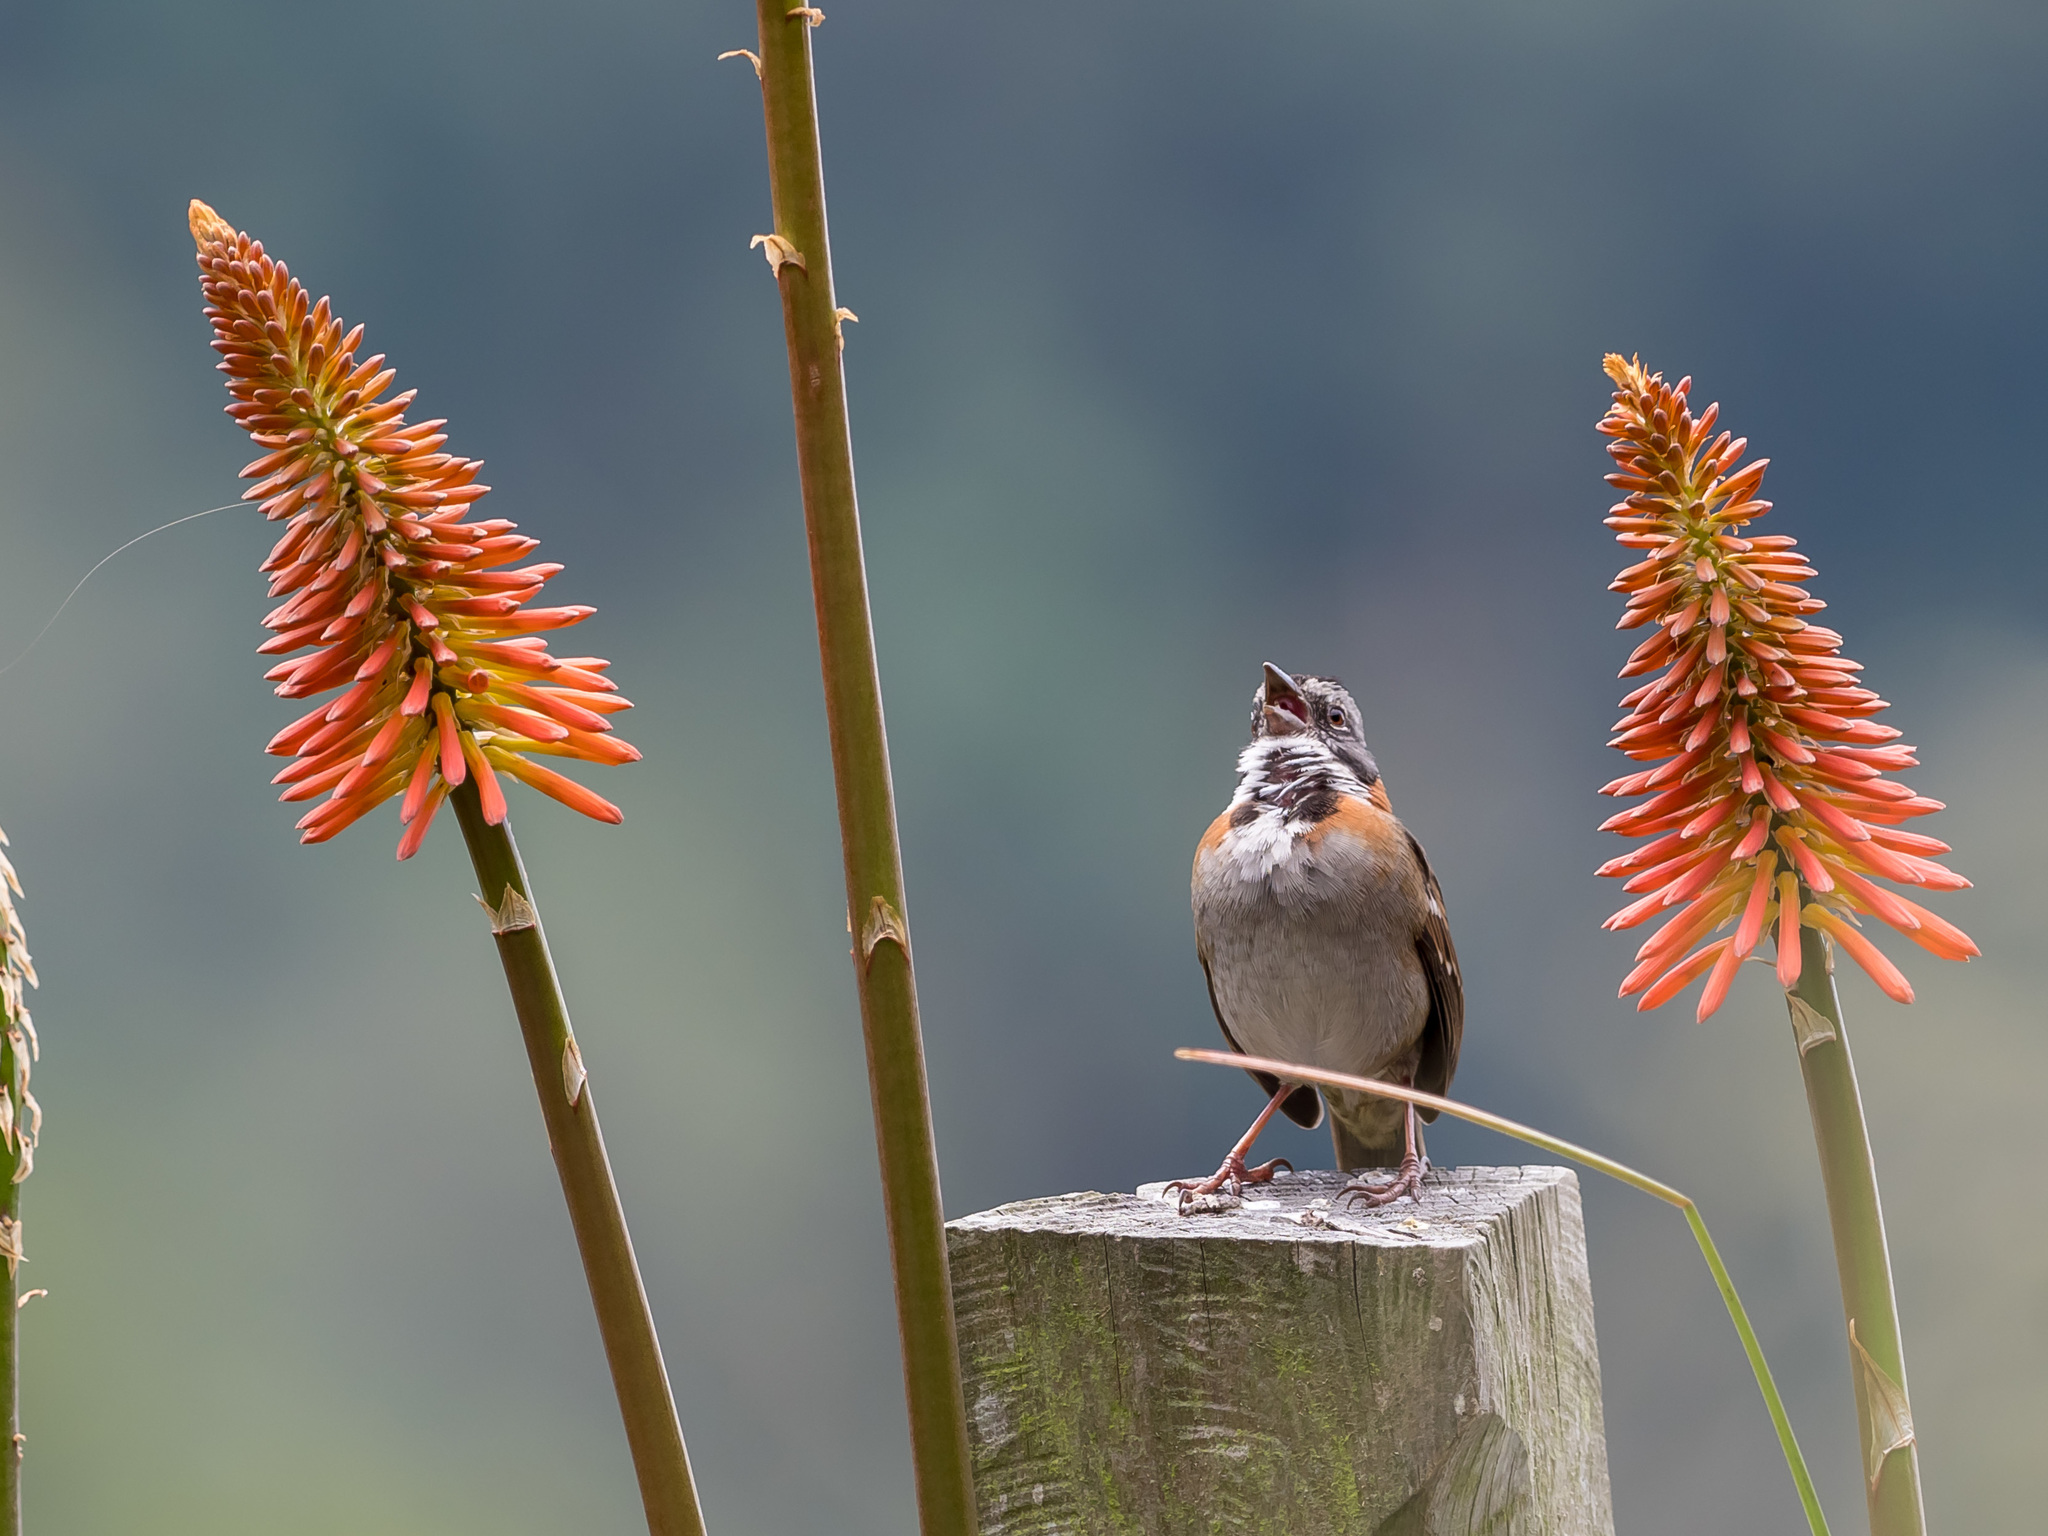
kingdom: Animalia
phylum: Chordata
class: Aves
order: Passeriformes
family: Passerellidae
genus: Zonotrichia
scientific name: Zonotrichia capensis
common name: Rufous-collared sparrow
